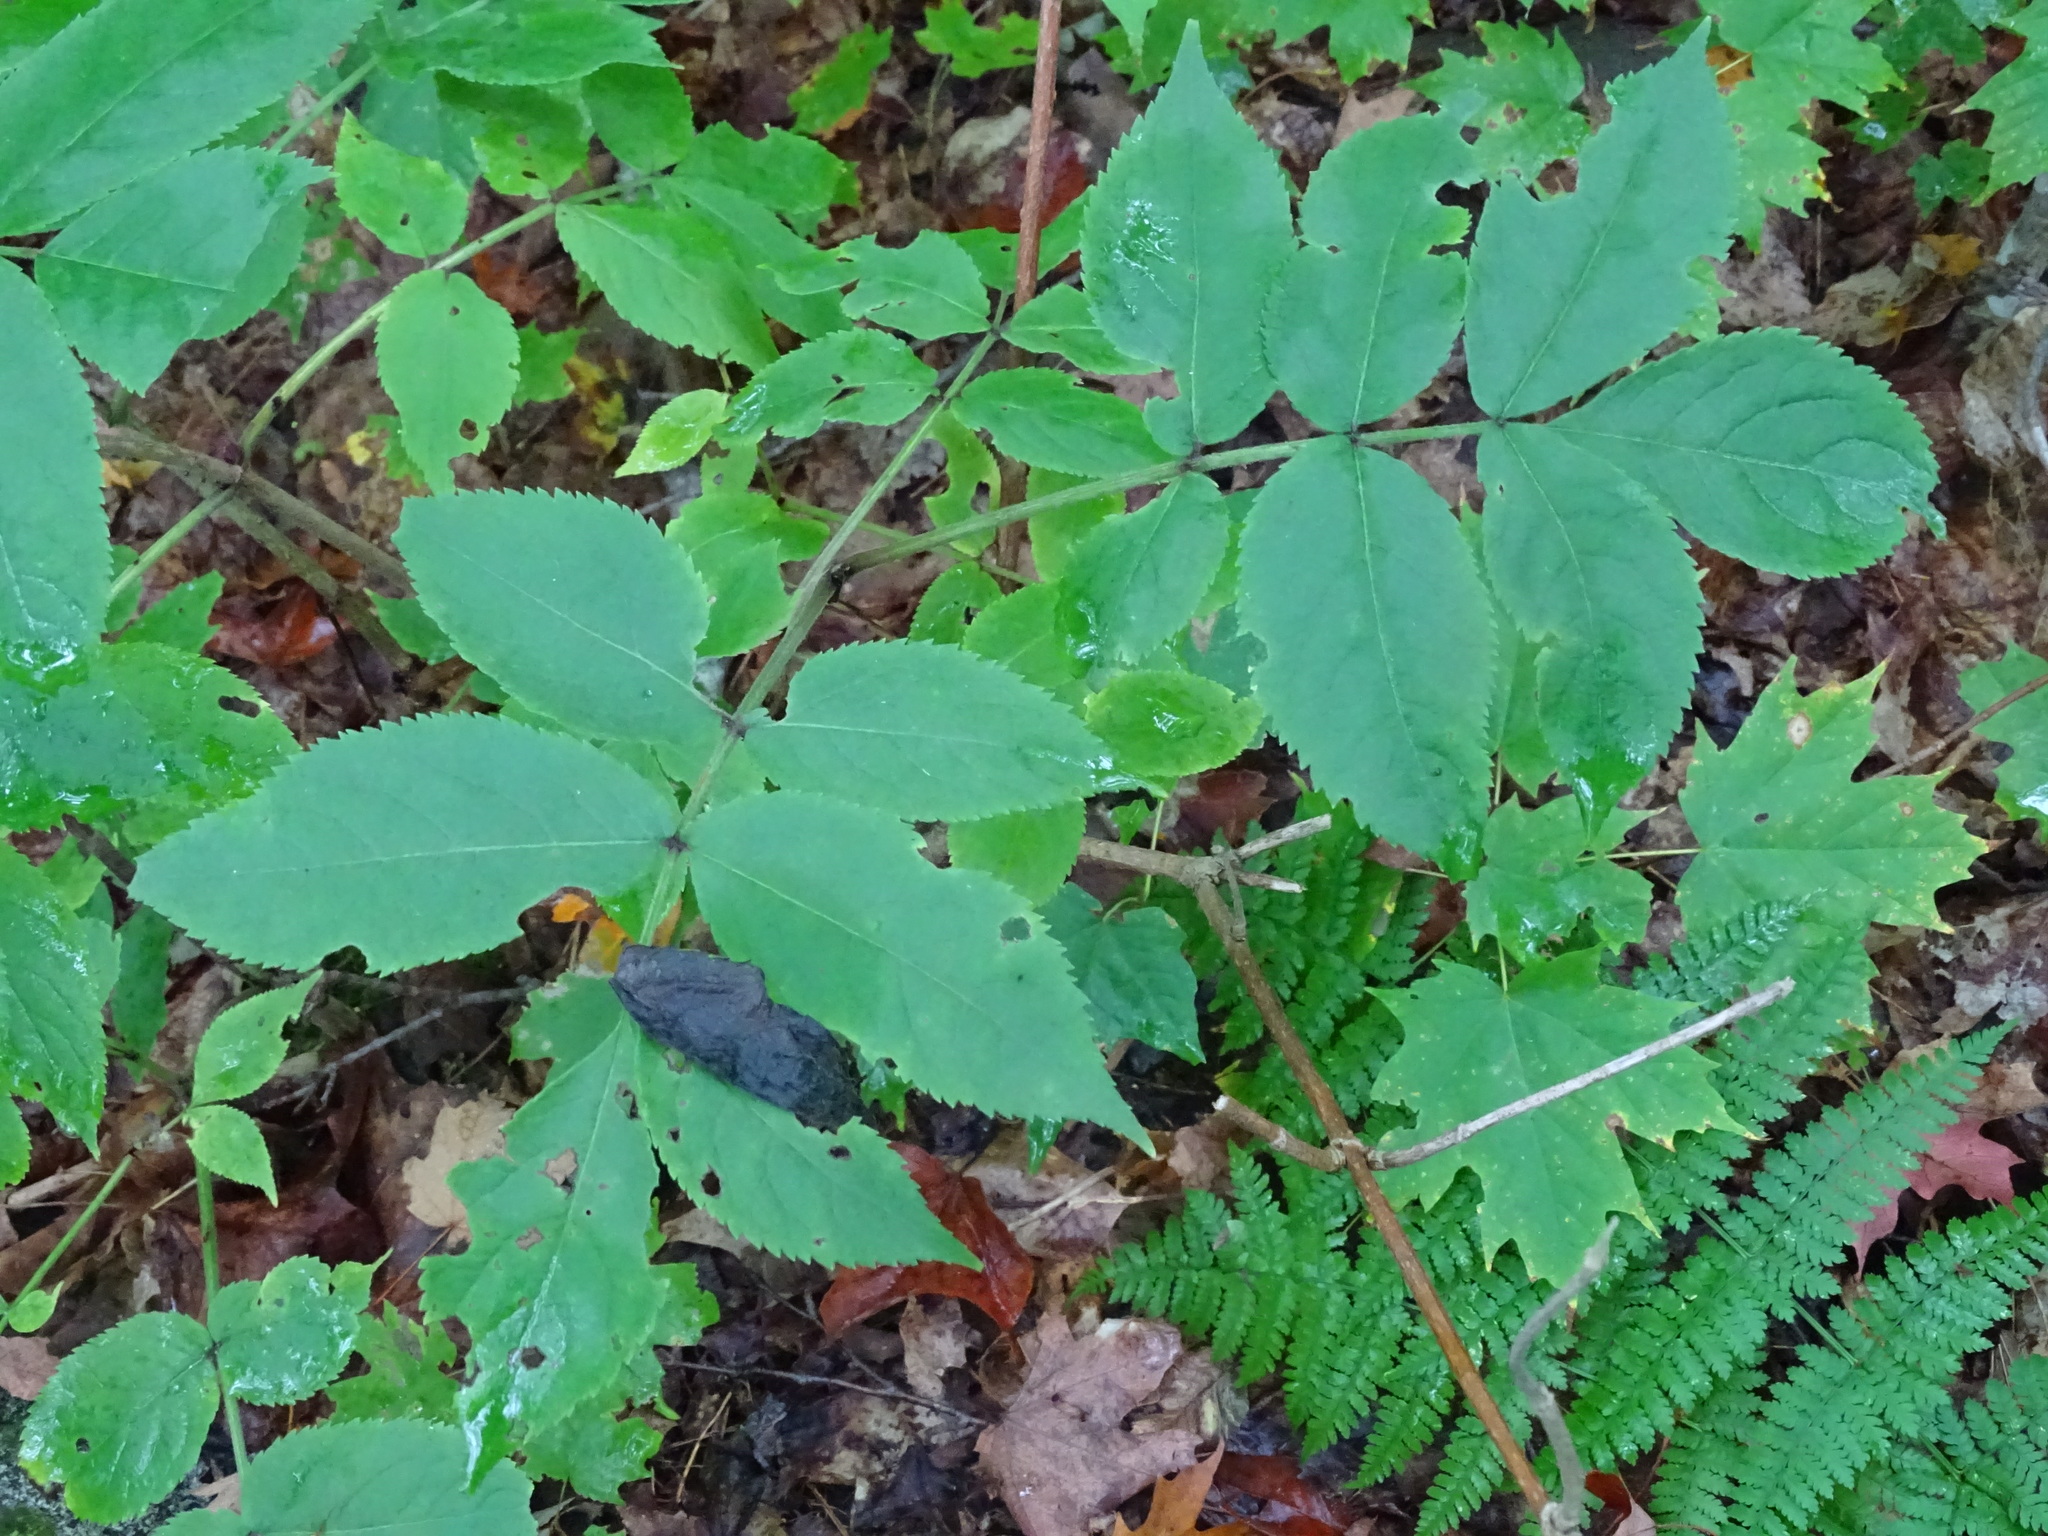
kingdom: Plantae
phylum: Tracheophyta
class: Magnoliopsida
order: Dipsacales
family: Viburnaceae
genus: Sambucus
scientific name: Sambucus racemosa
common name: Red-berried elder
